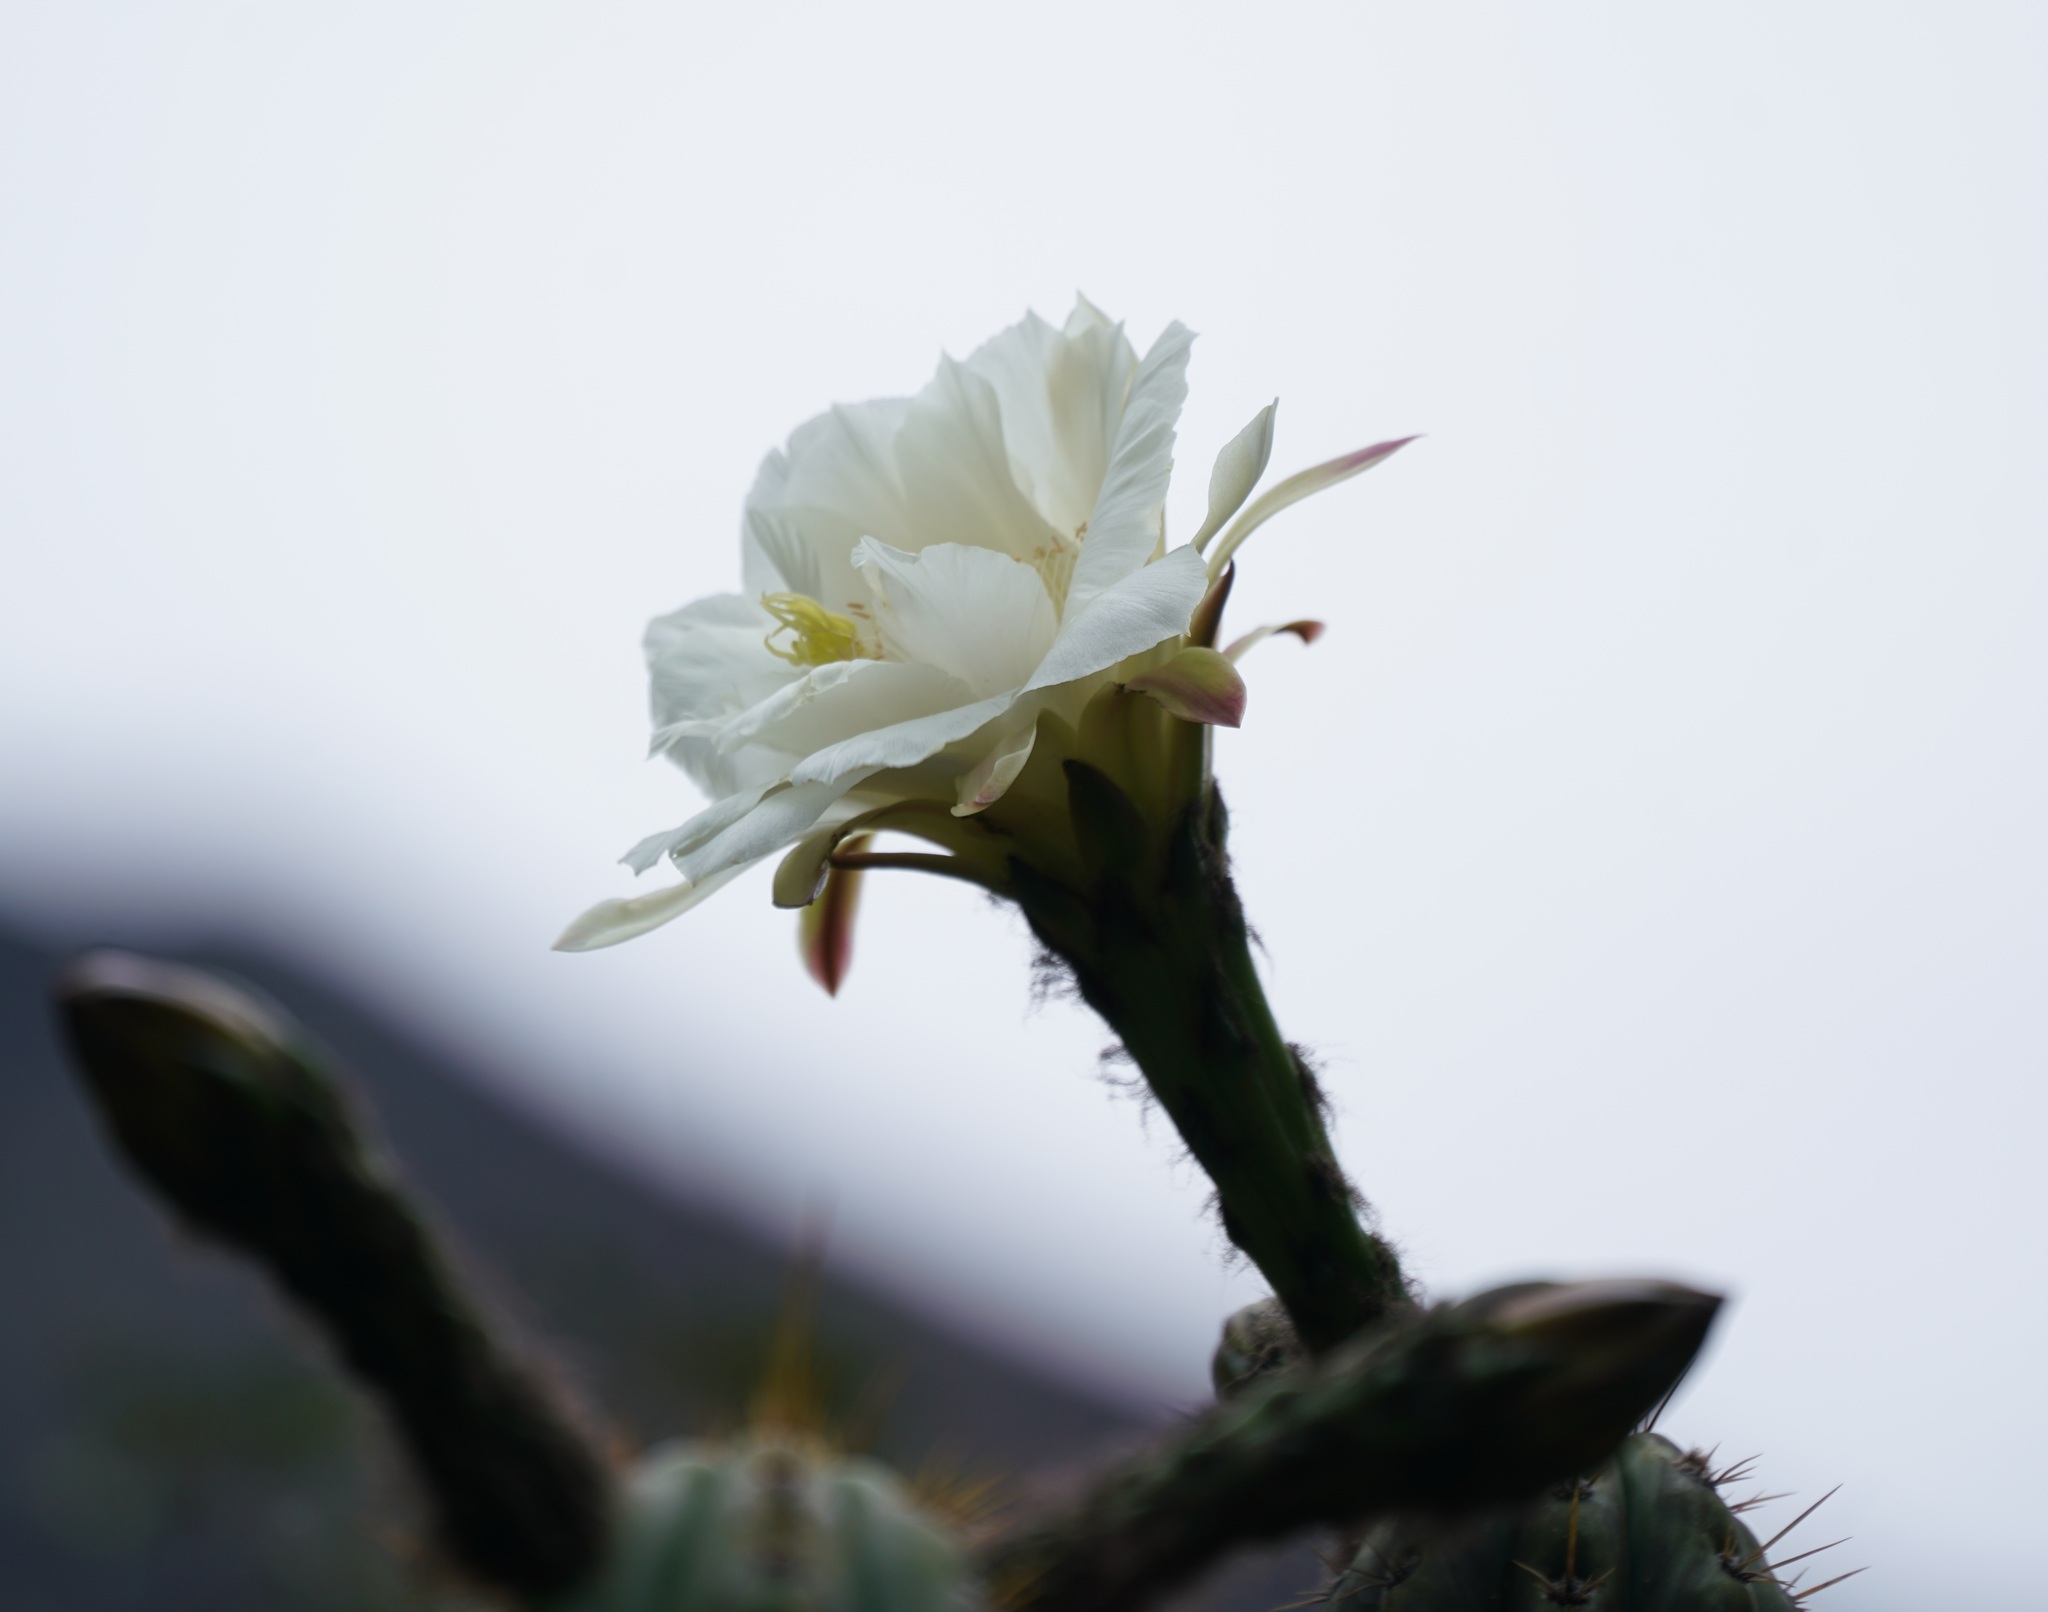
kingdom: Plantae
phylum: Tracheophyta
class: Magnoliopsida
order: Caryophyllales
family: Cactaceae
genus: Trichocereus
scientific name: Trichocereus cuzcoensis
